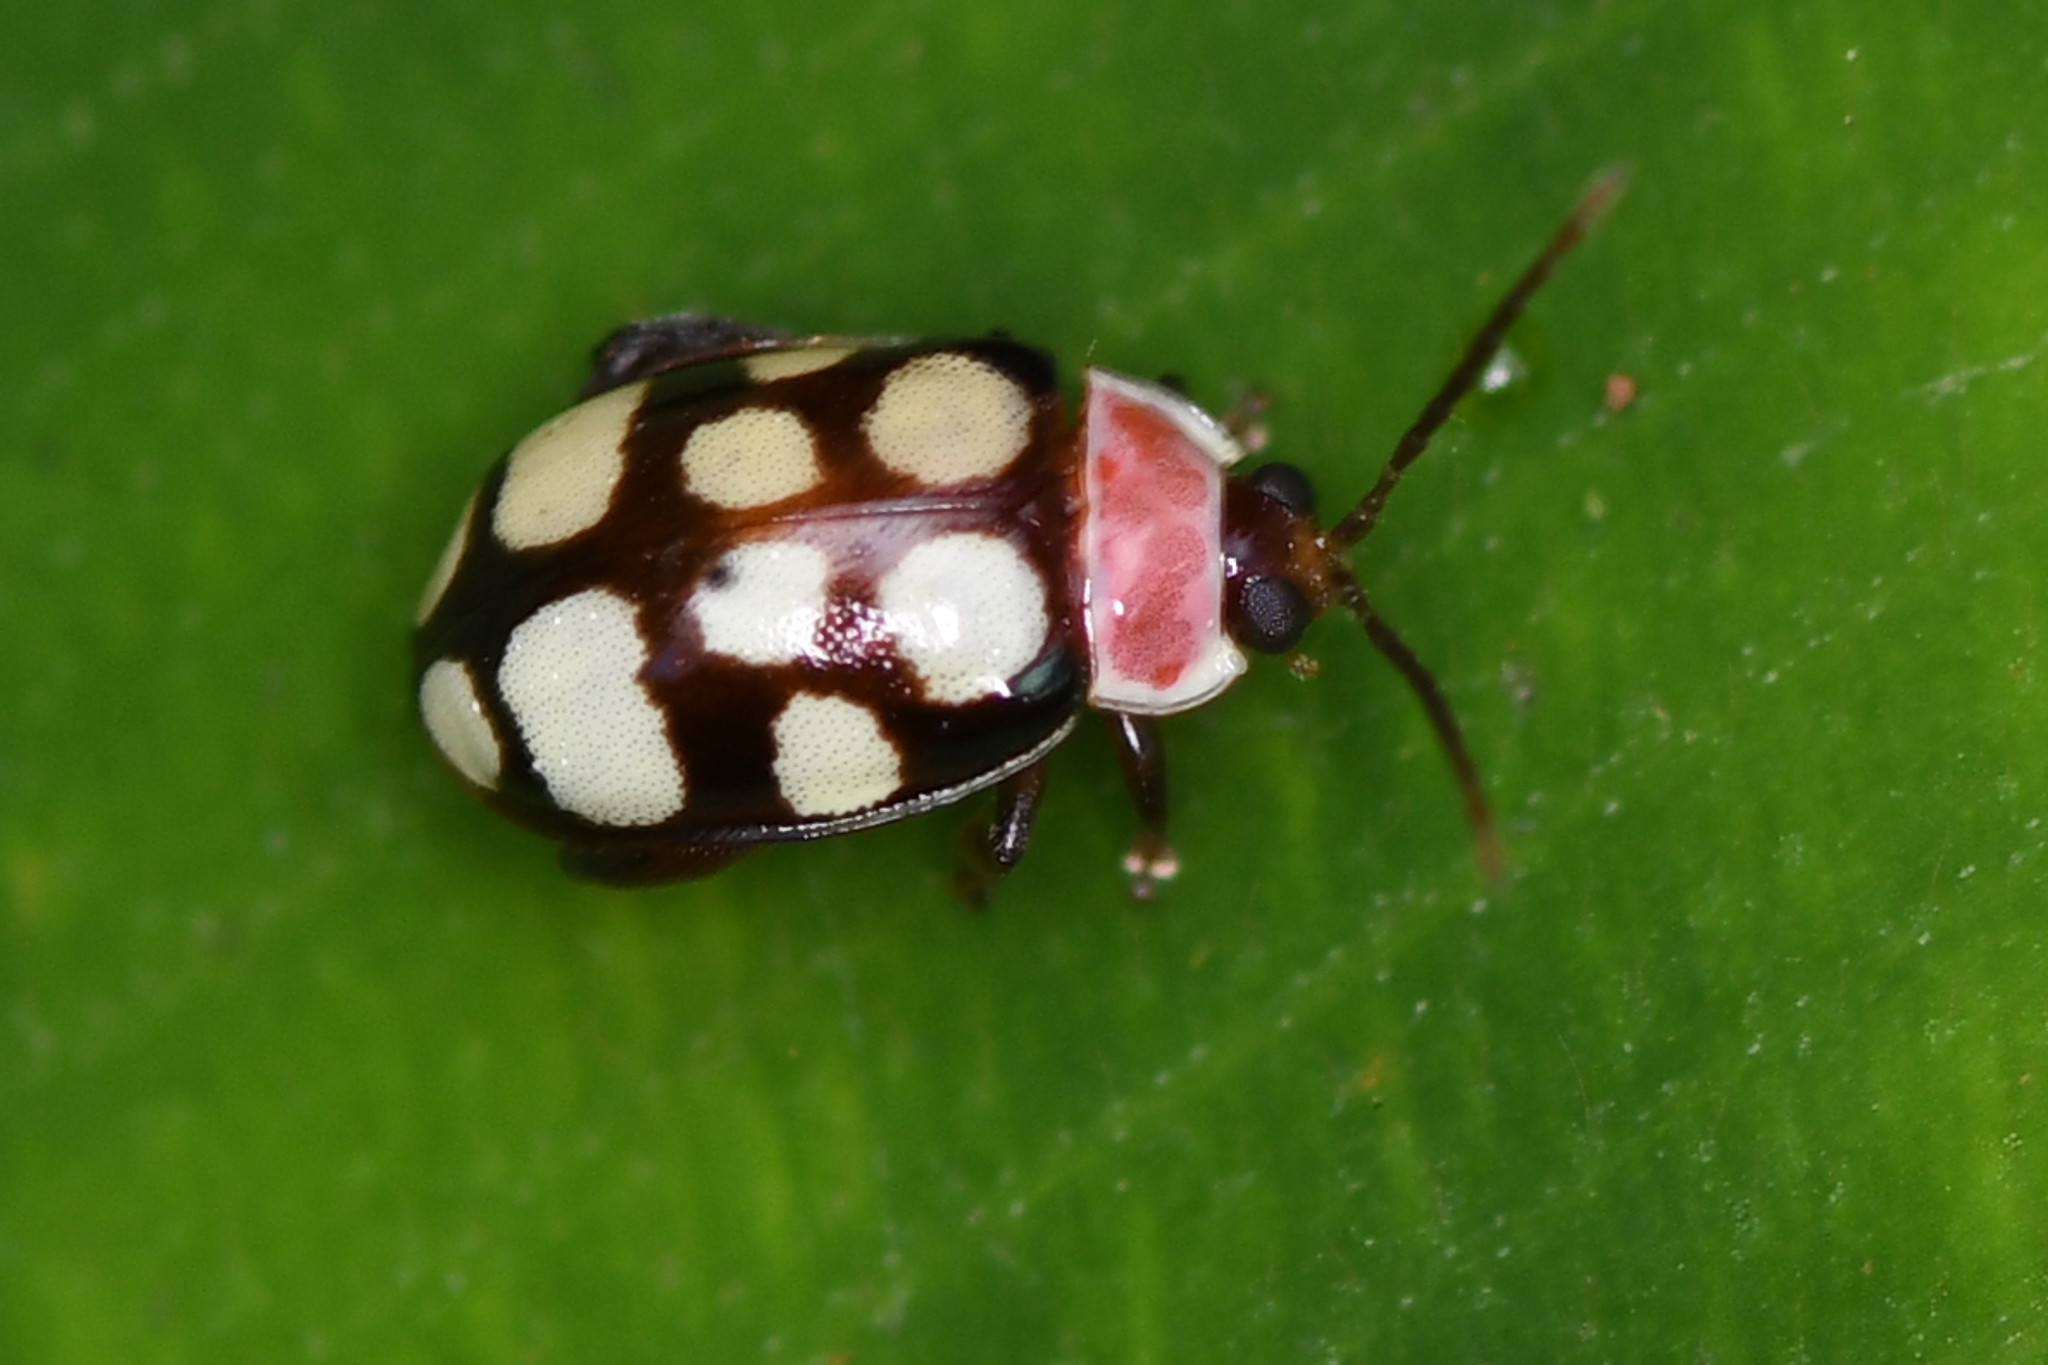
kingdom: Animalia
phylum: Arthropoda
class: Insecta
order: Coleoptera
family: Chrysomelidae
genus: Alagoasa
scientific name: Alagoasa
